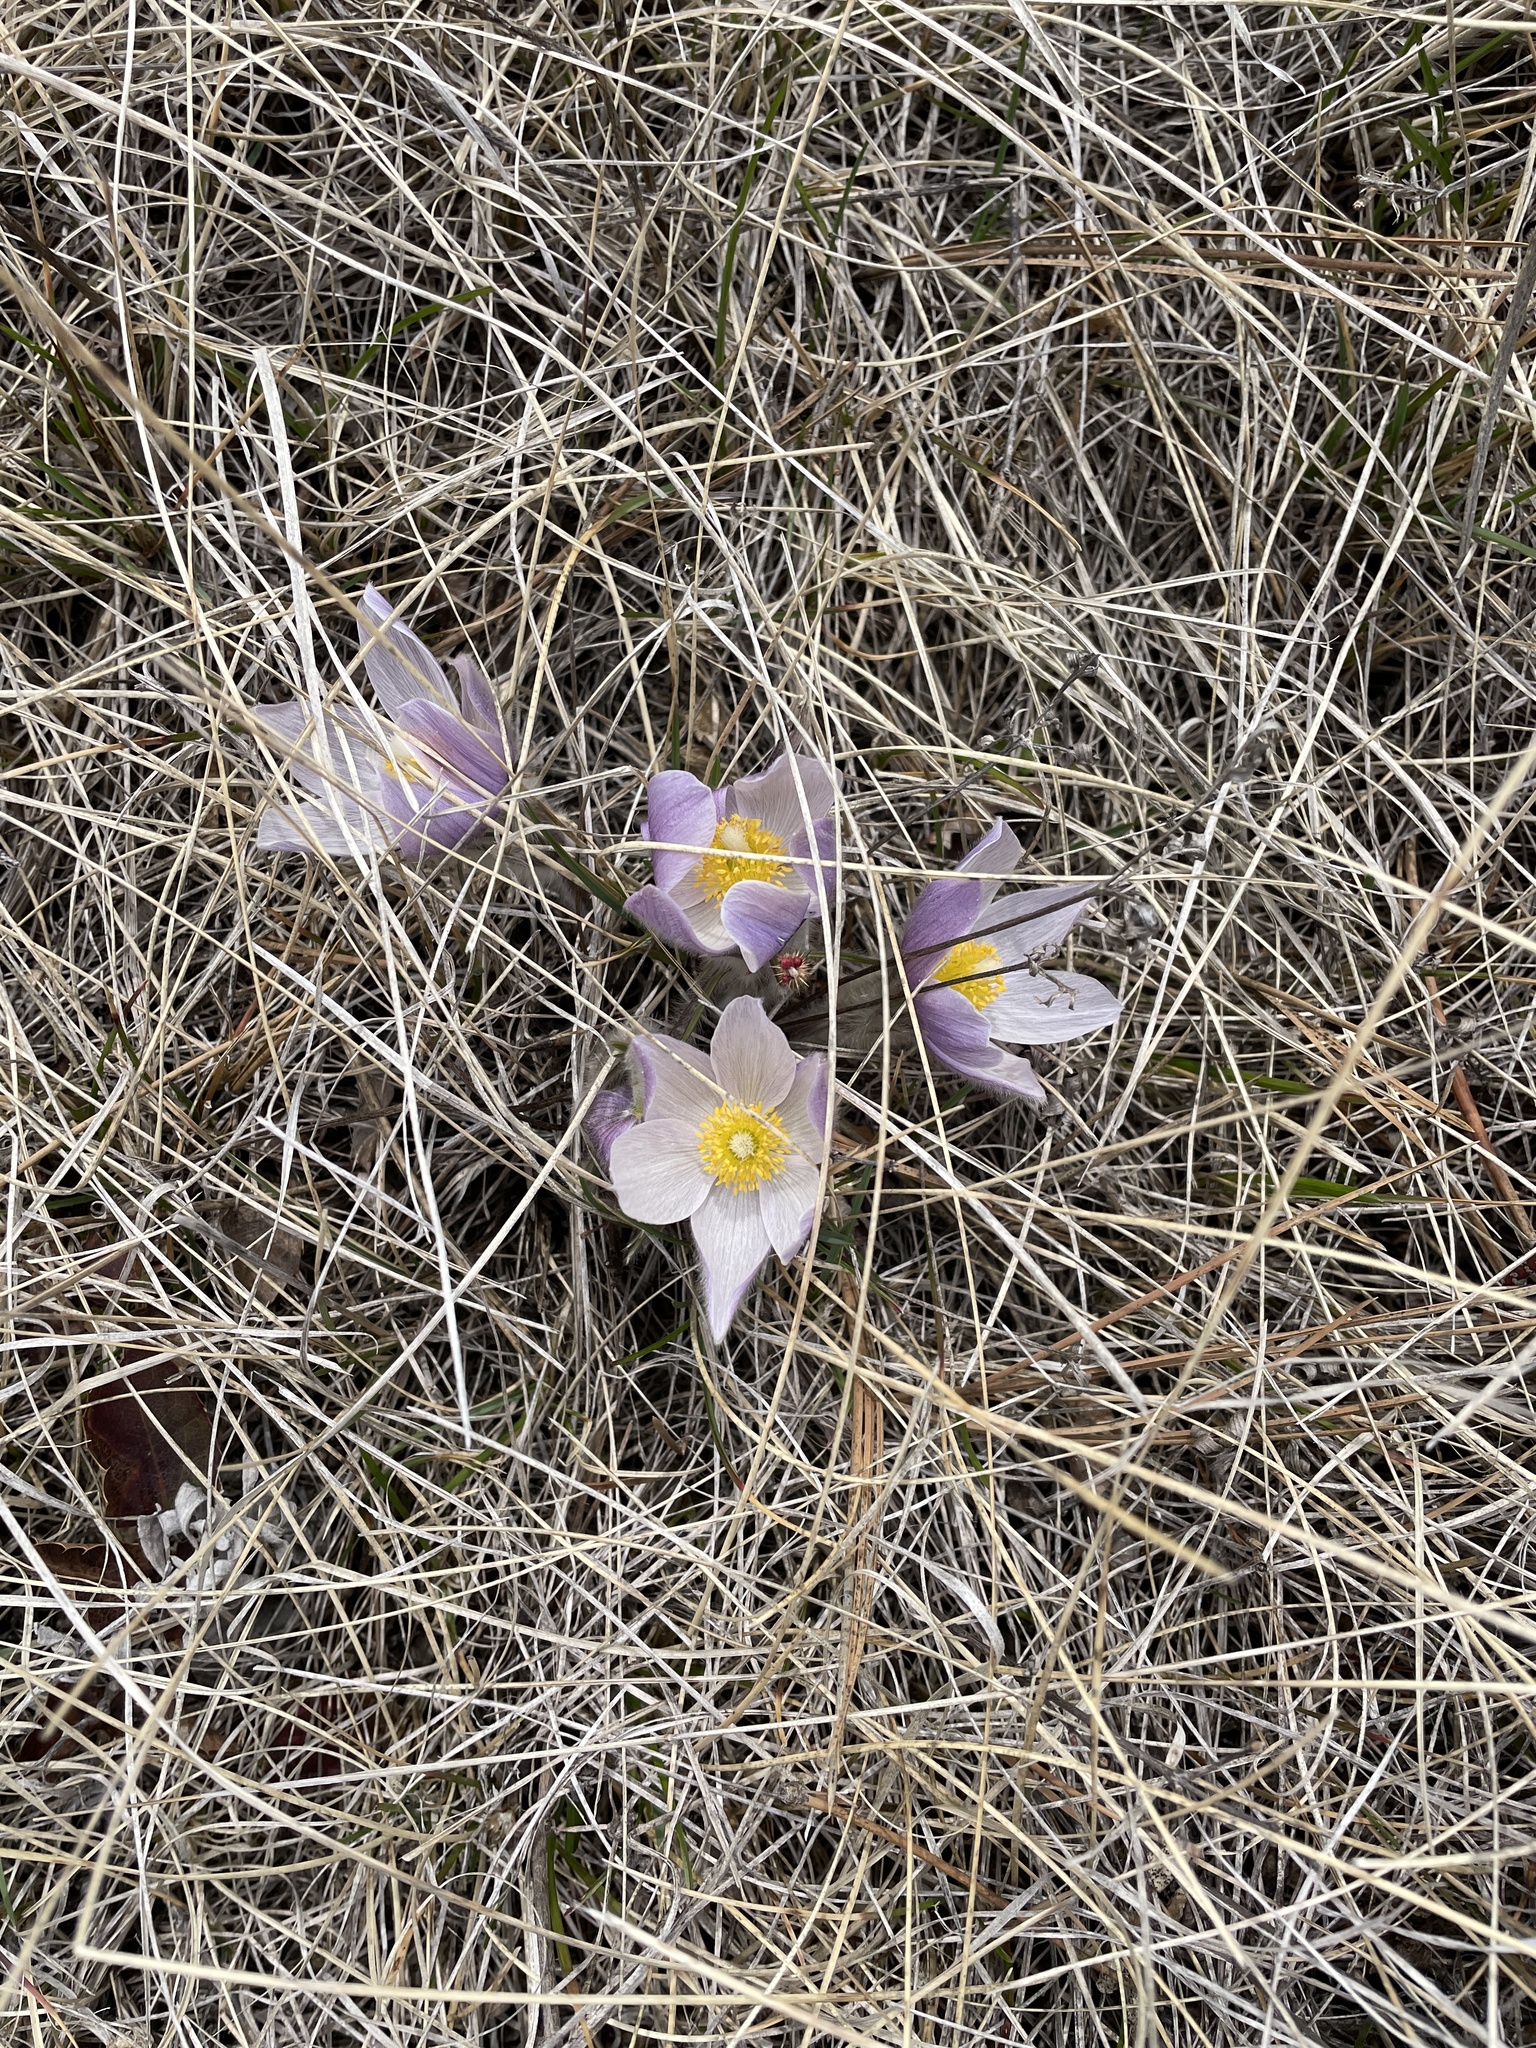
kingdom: Plantae
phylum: Tracheophyta
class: Magnoliopsida
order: Ranunculales
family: Ranunculaceae
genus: Pulsatilla
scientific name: Pulsatilla nuttalliana
